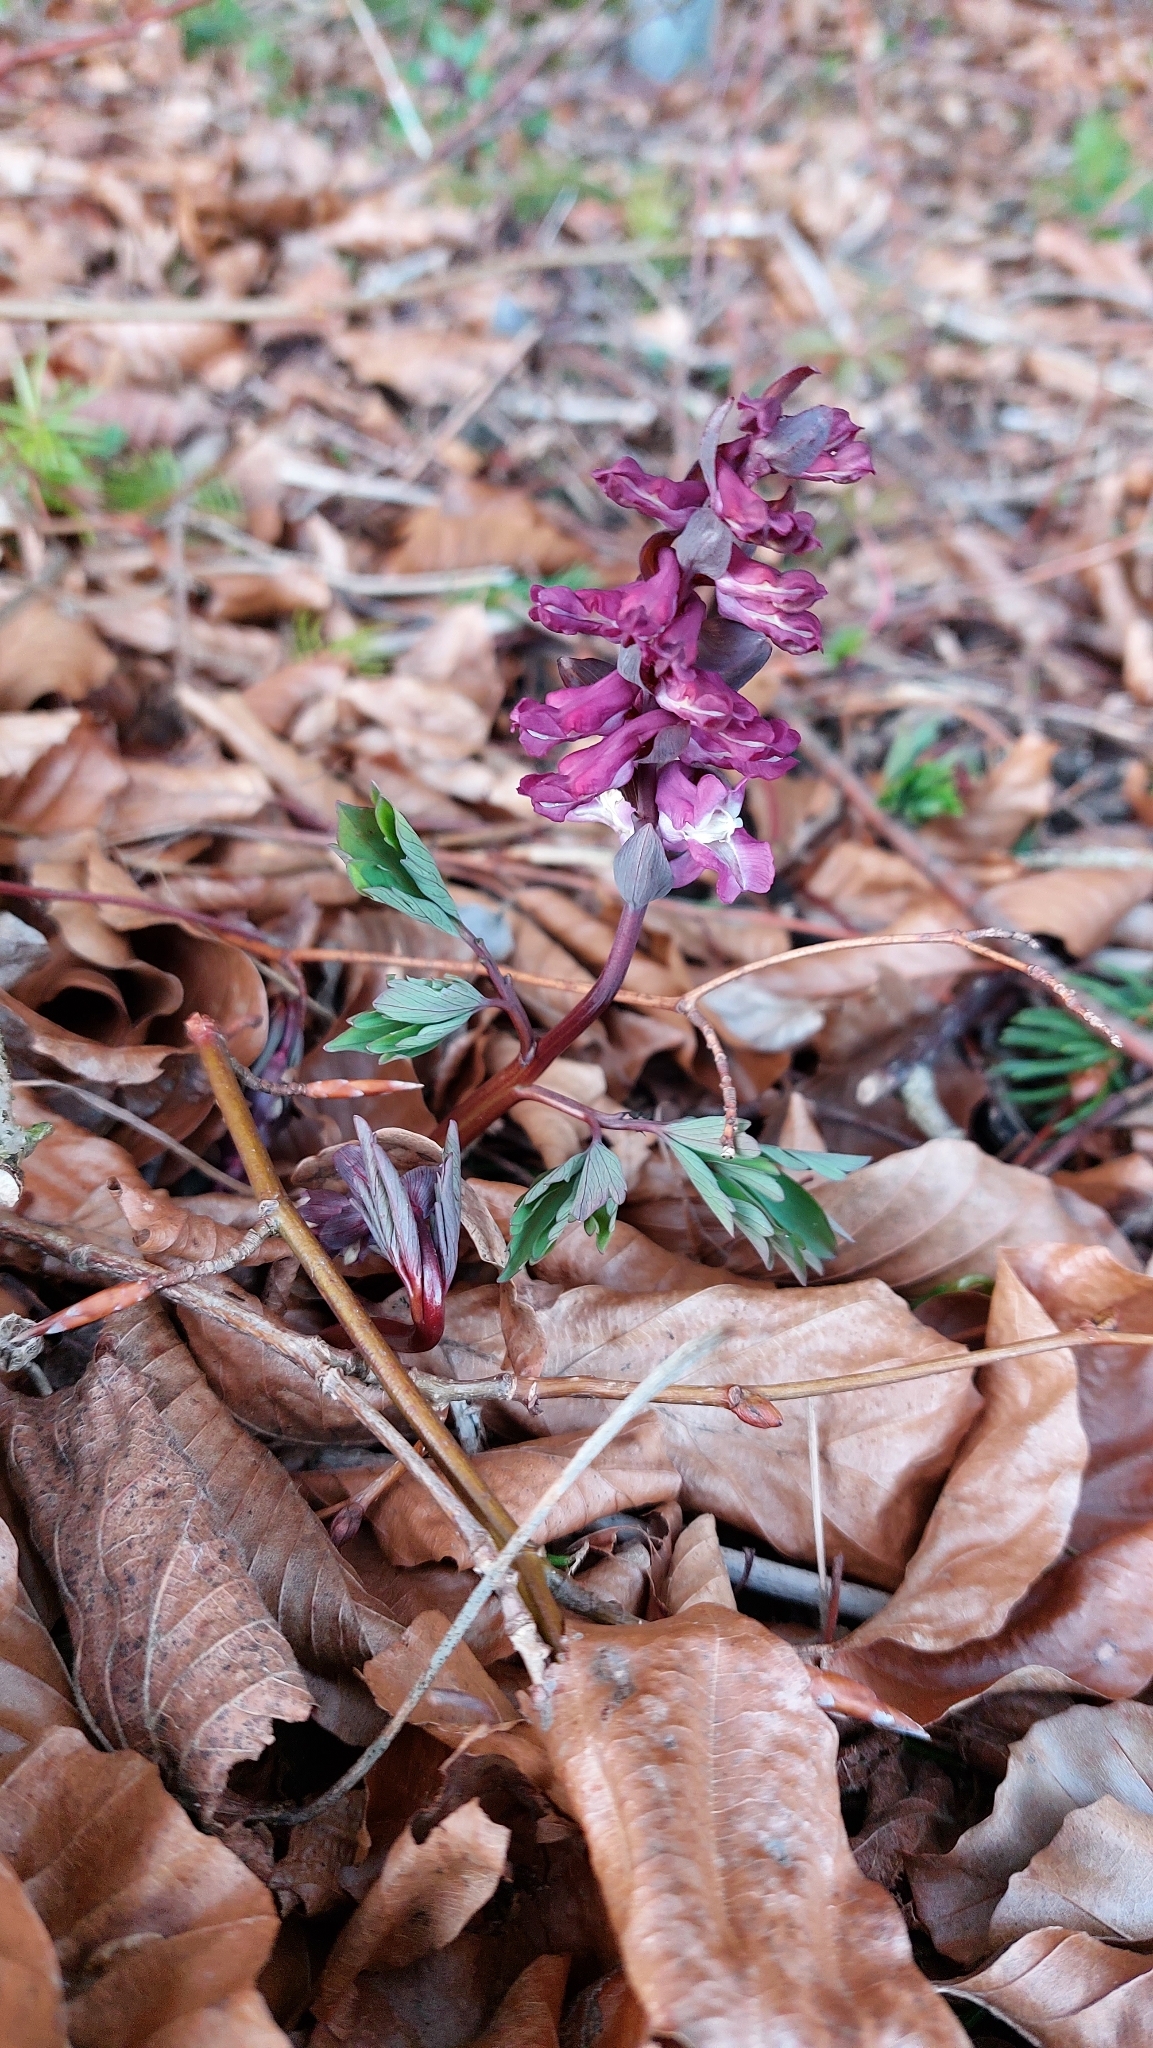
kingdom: Plantae
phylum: Tracheophyta
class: Magnoliopsida
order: Ranunculales
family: Papaveraceae
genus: Corydalis
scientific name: Corydalis cava
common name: Hollowroot
